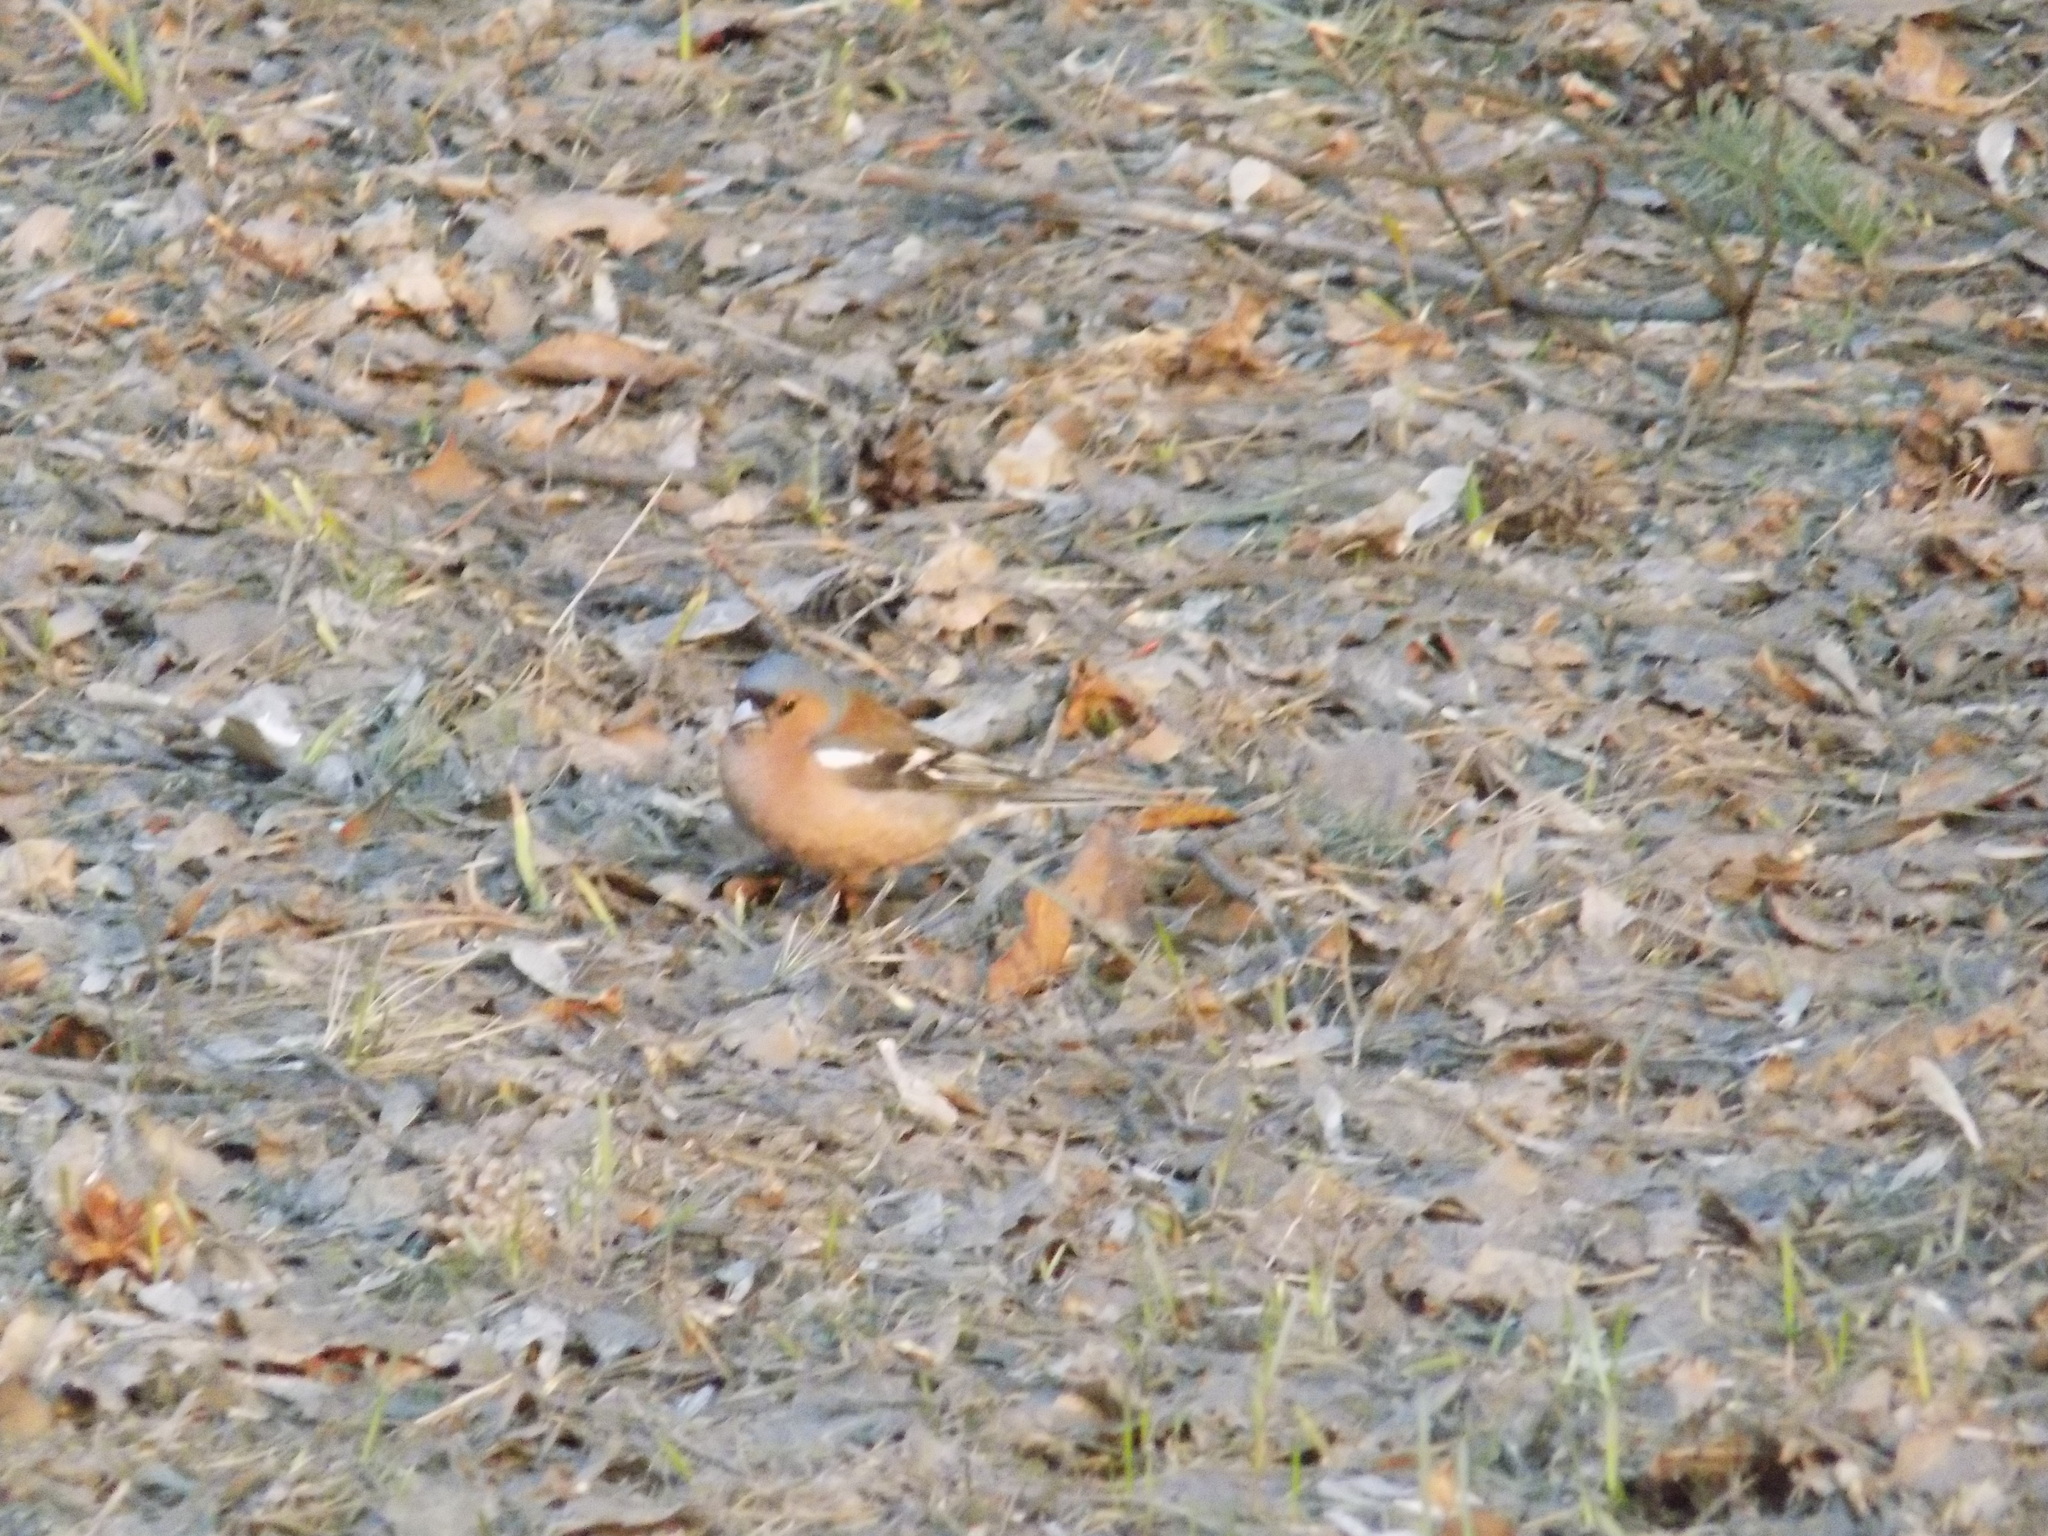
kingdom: Animalia
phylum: Chordata
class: Aves
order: Passeriformes
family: Fringillidae
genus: Fringilla
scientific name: Fringilla coelebs
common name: Common chaffinch
